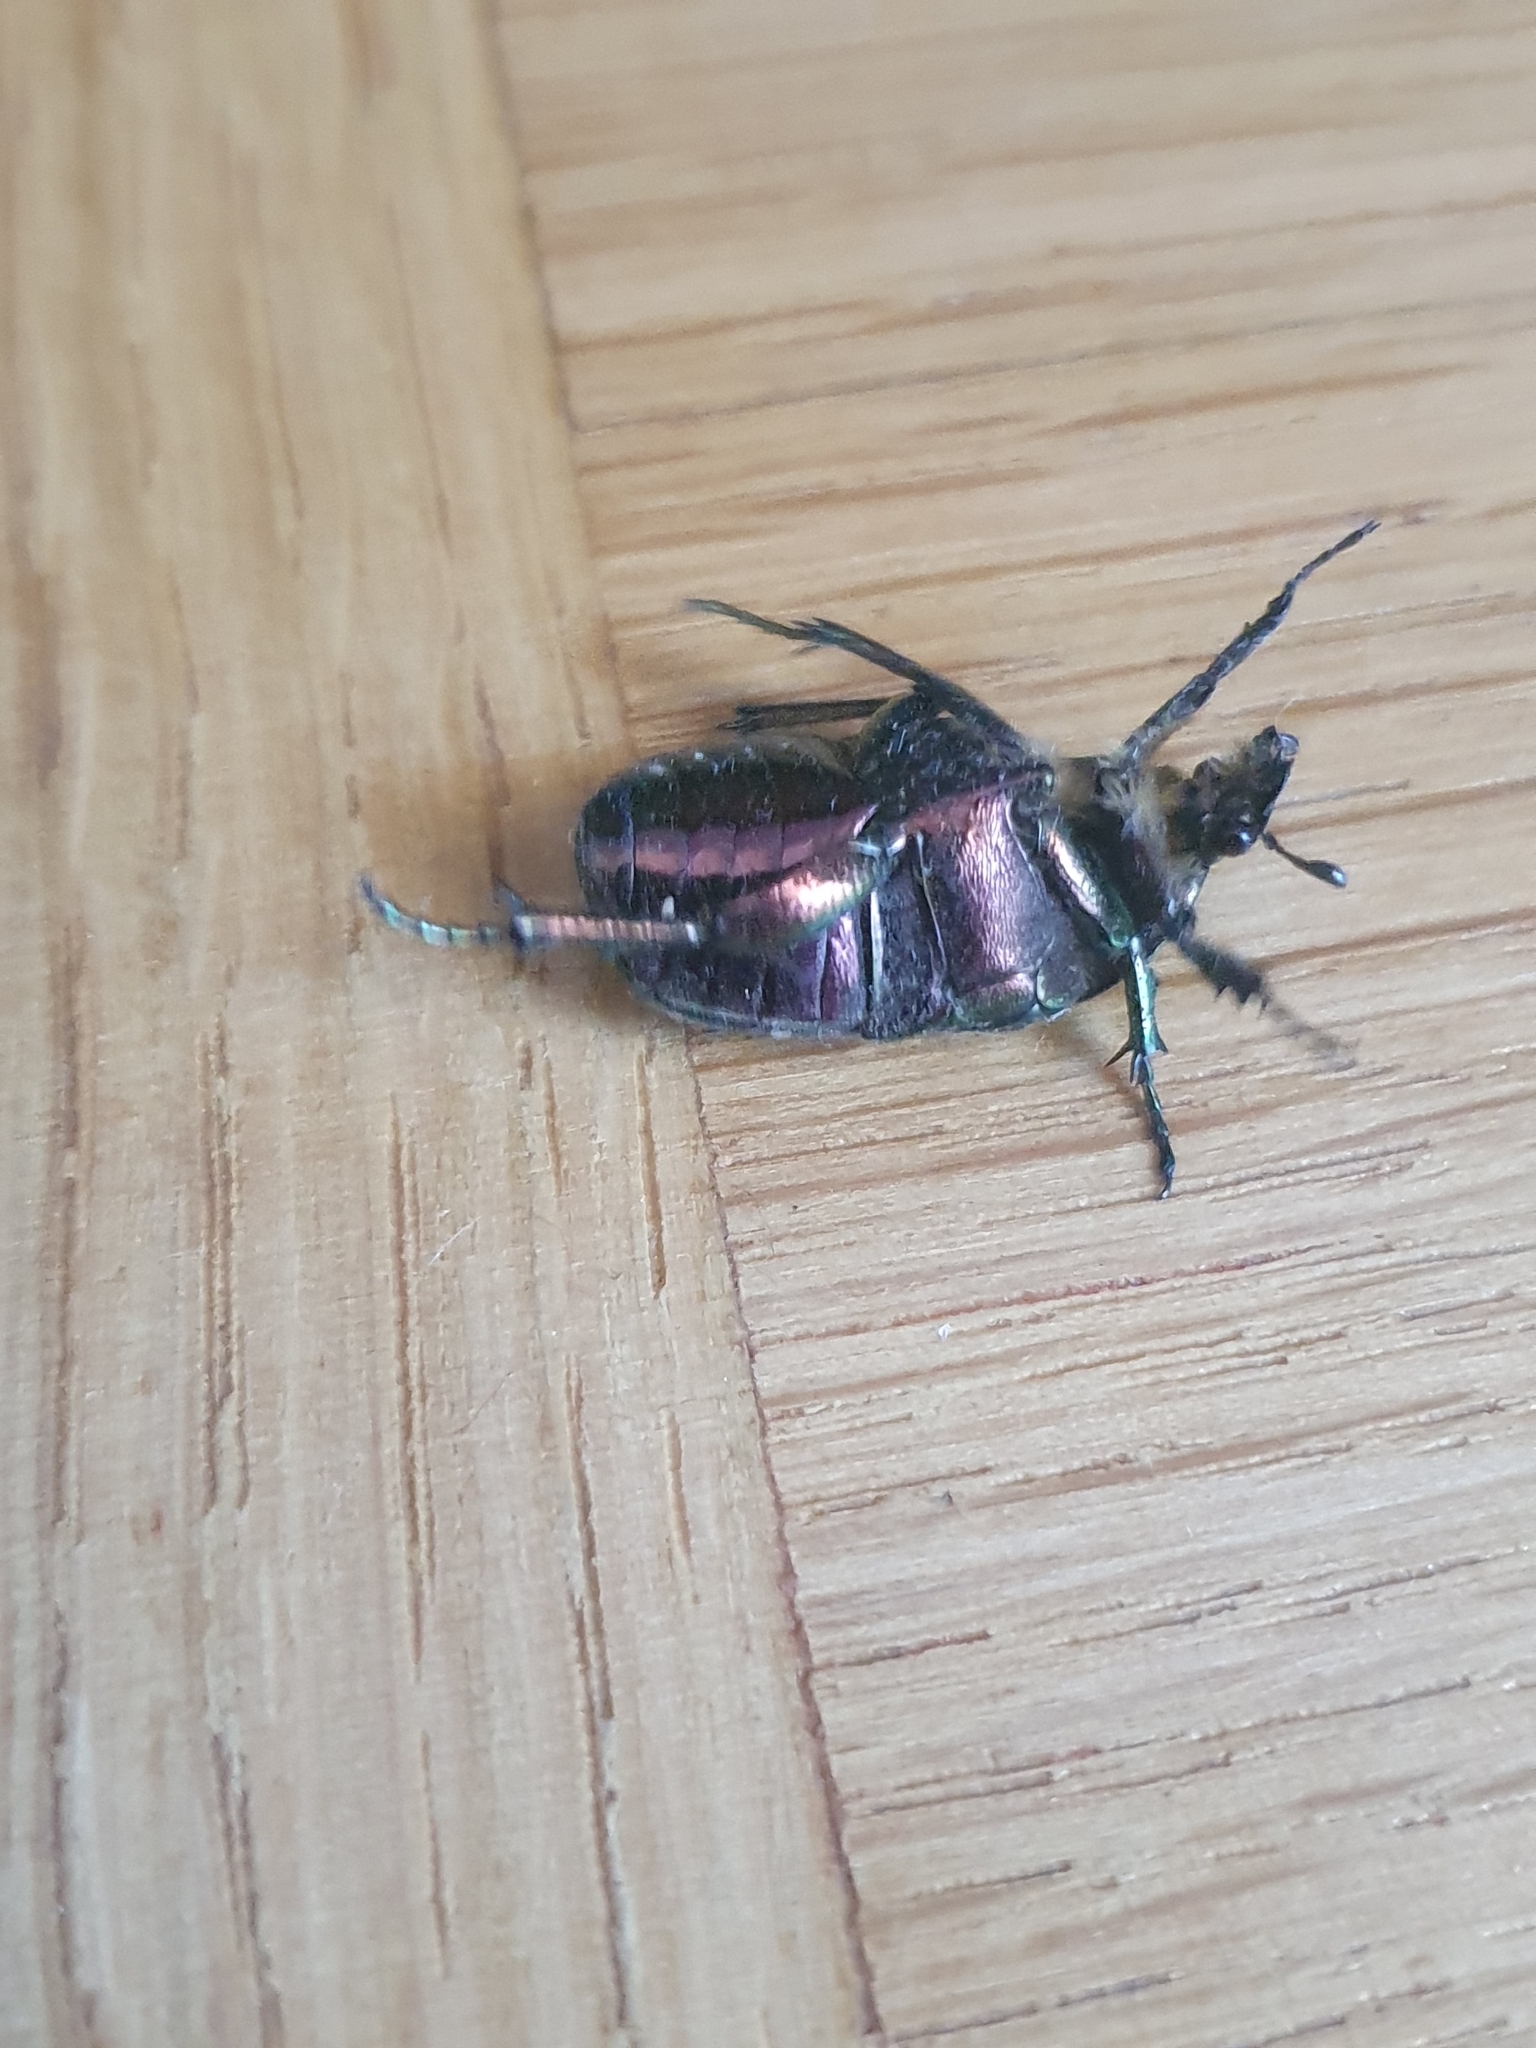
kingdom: Animalia
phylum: Arthropoda
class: Insecta
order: Coleoptera
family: Scarabaeidae
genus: Cetonia
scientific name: Cetonia aurata
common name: Rose chafer
